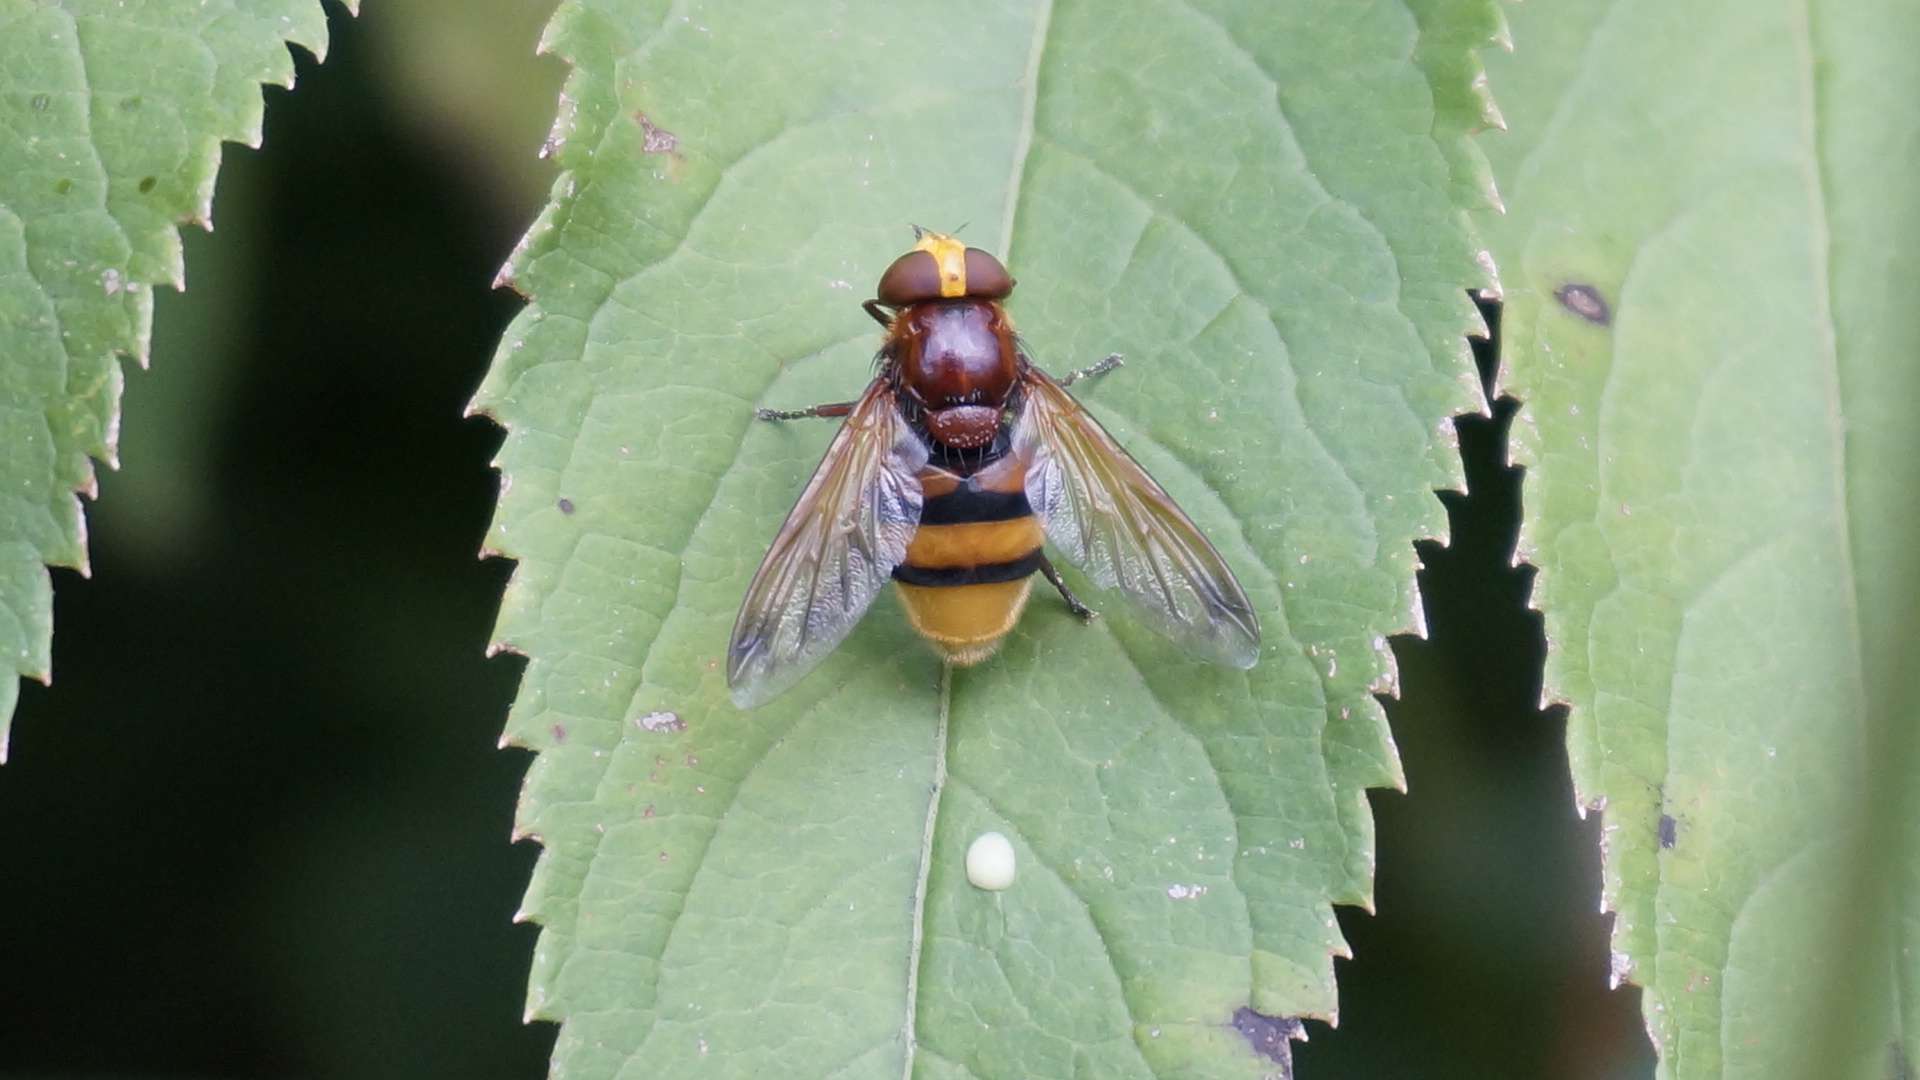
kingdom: Animalia
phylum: Arthropoda
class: Insecta
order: Diptera
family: Syrphidae
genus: Volucella
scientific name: Volucella zonaria
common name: Hornet hoverfly
